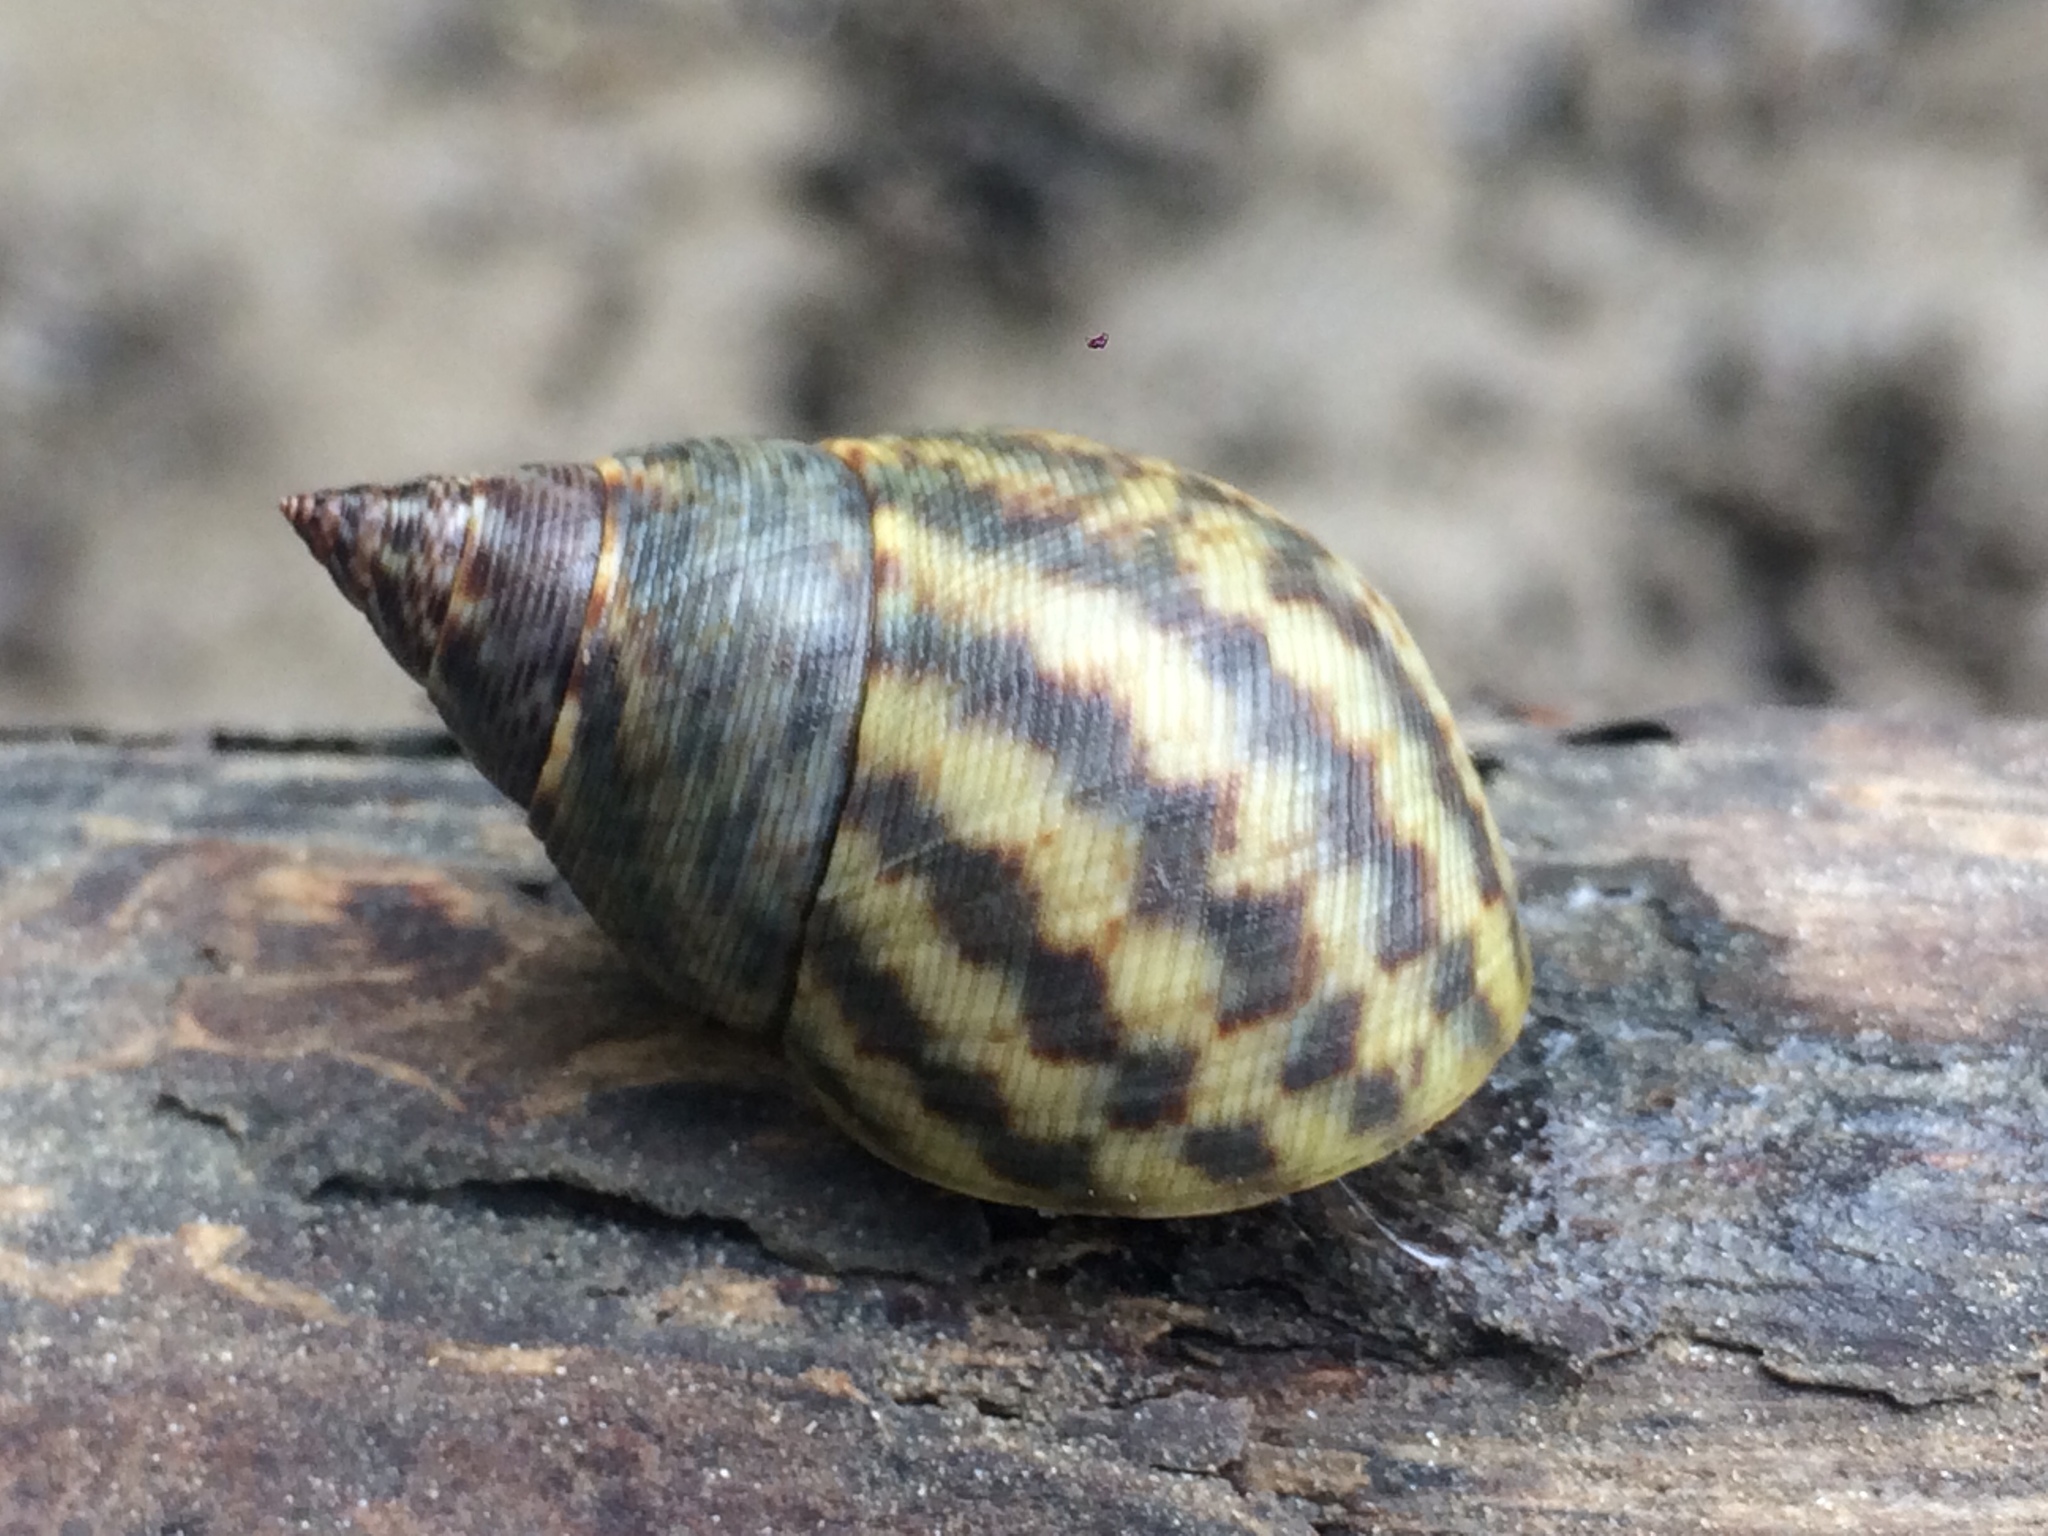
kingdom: Animalia
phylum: Mollusca
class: Gastropoda
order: Littorinimorpha
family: Littorinidae
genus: Littoraria
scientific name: Littoraria angulifera
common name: Mangrove periwinkle
